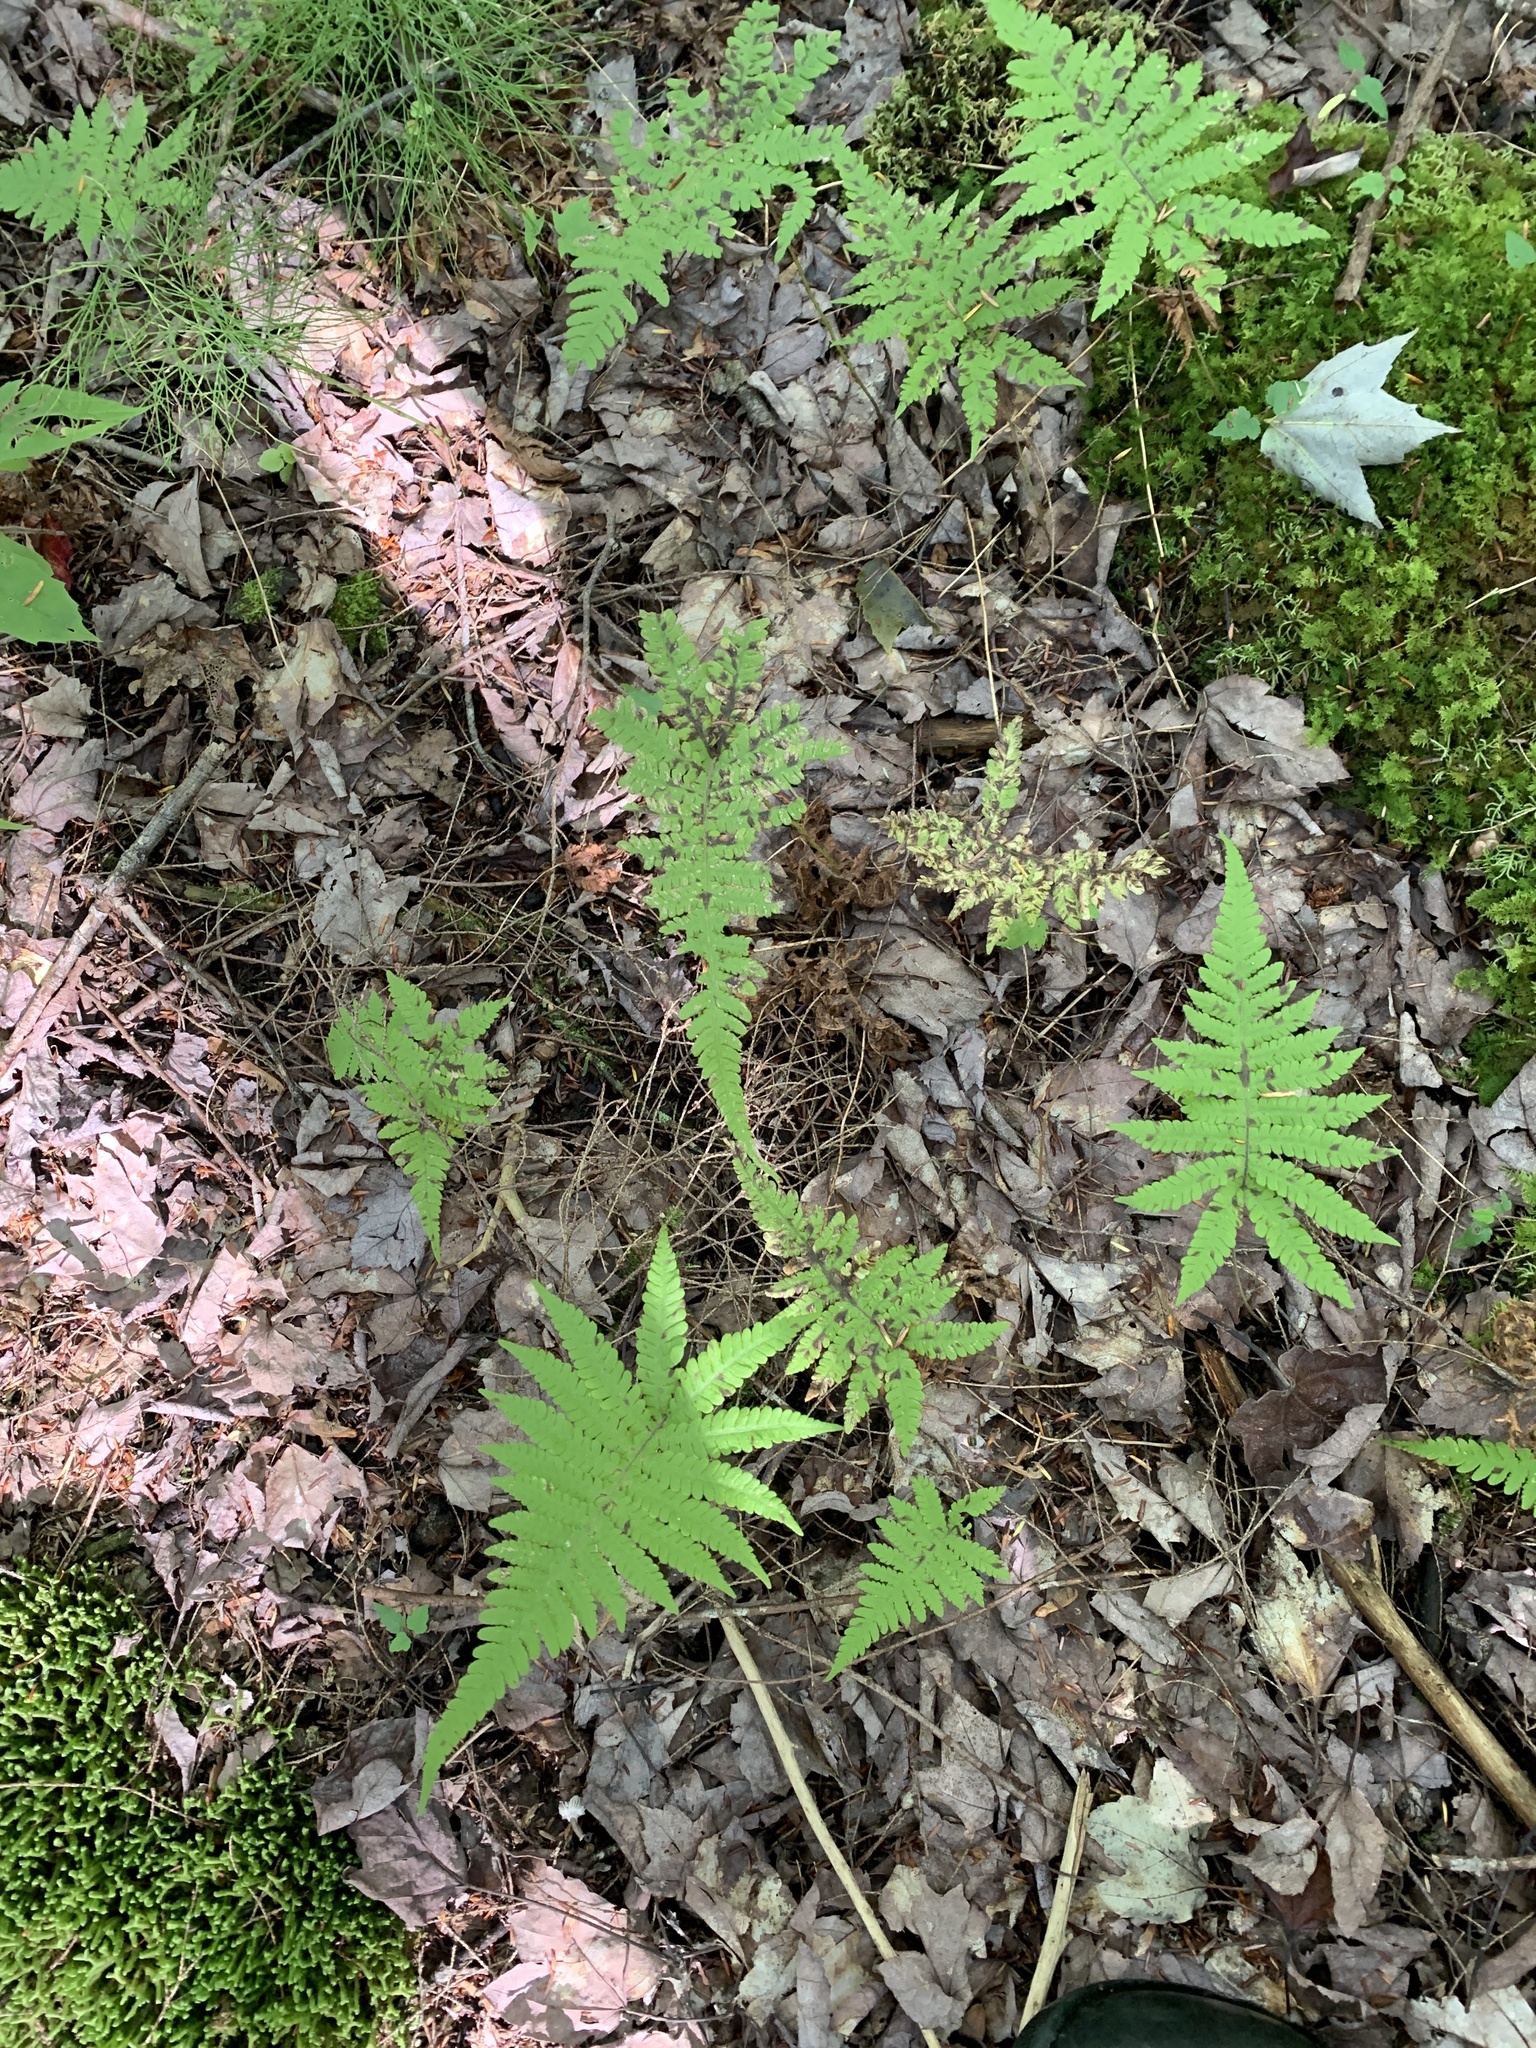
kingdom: Plantae
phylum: Tracheophyta
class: Polypodiopsida
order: Polypodiales
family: Thelypteridaceae
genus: Phegopteris
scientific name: Phegopteris connectilis
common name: Beech fern
